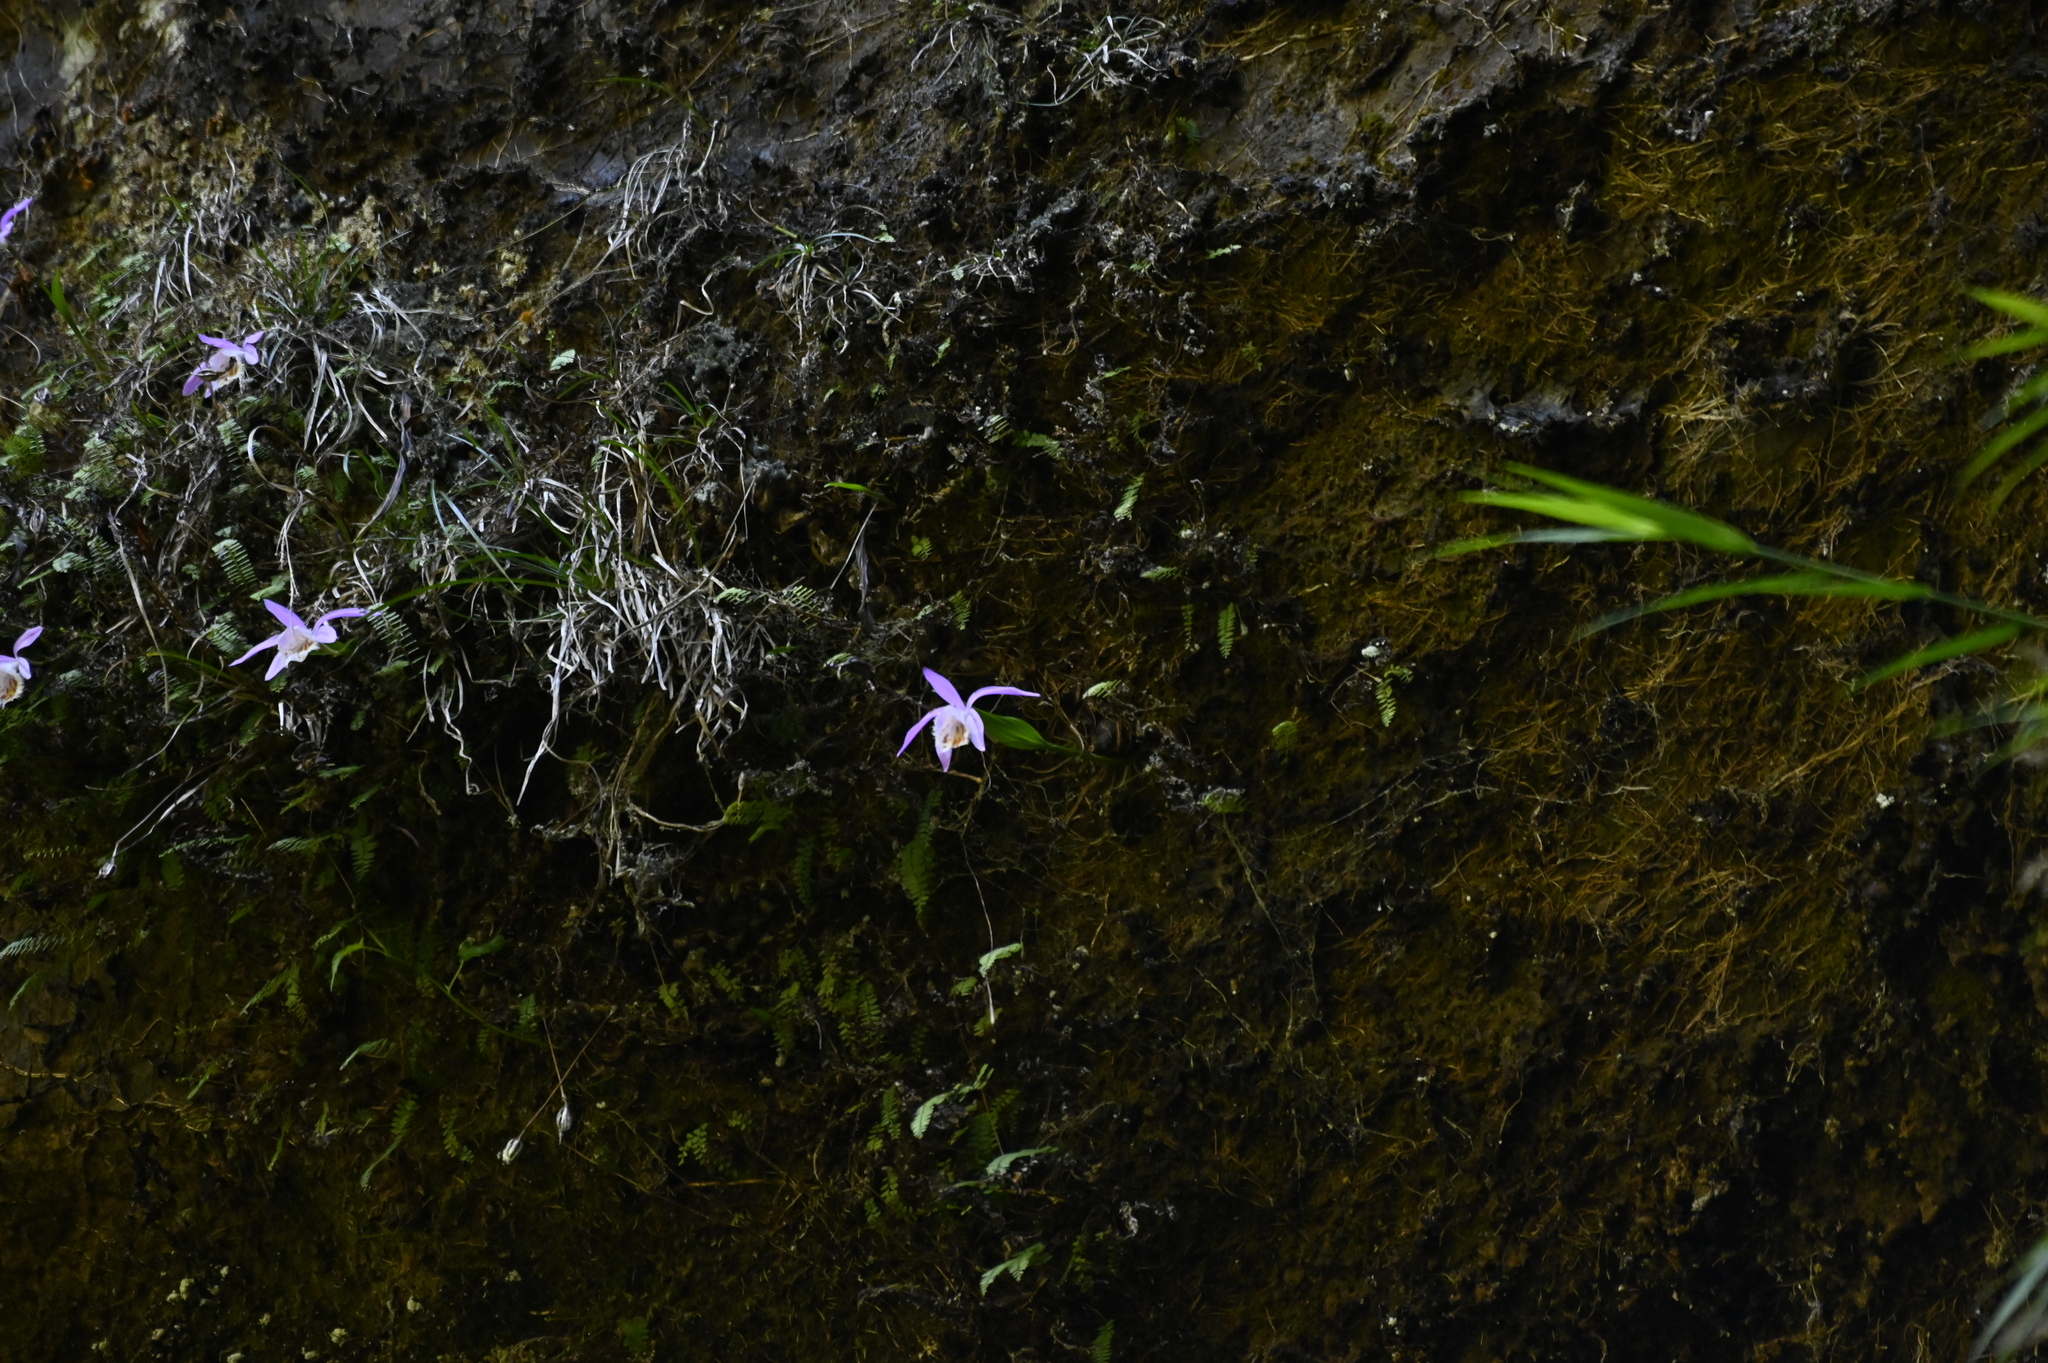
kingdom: Plantae
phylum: Tracheophyta
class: Liliopsida
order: Asparagales
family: Orchidaceae
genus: Pleione
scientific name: Pleione formosana
